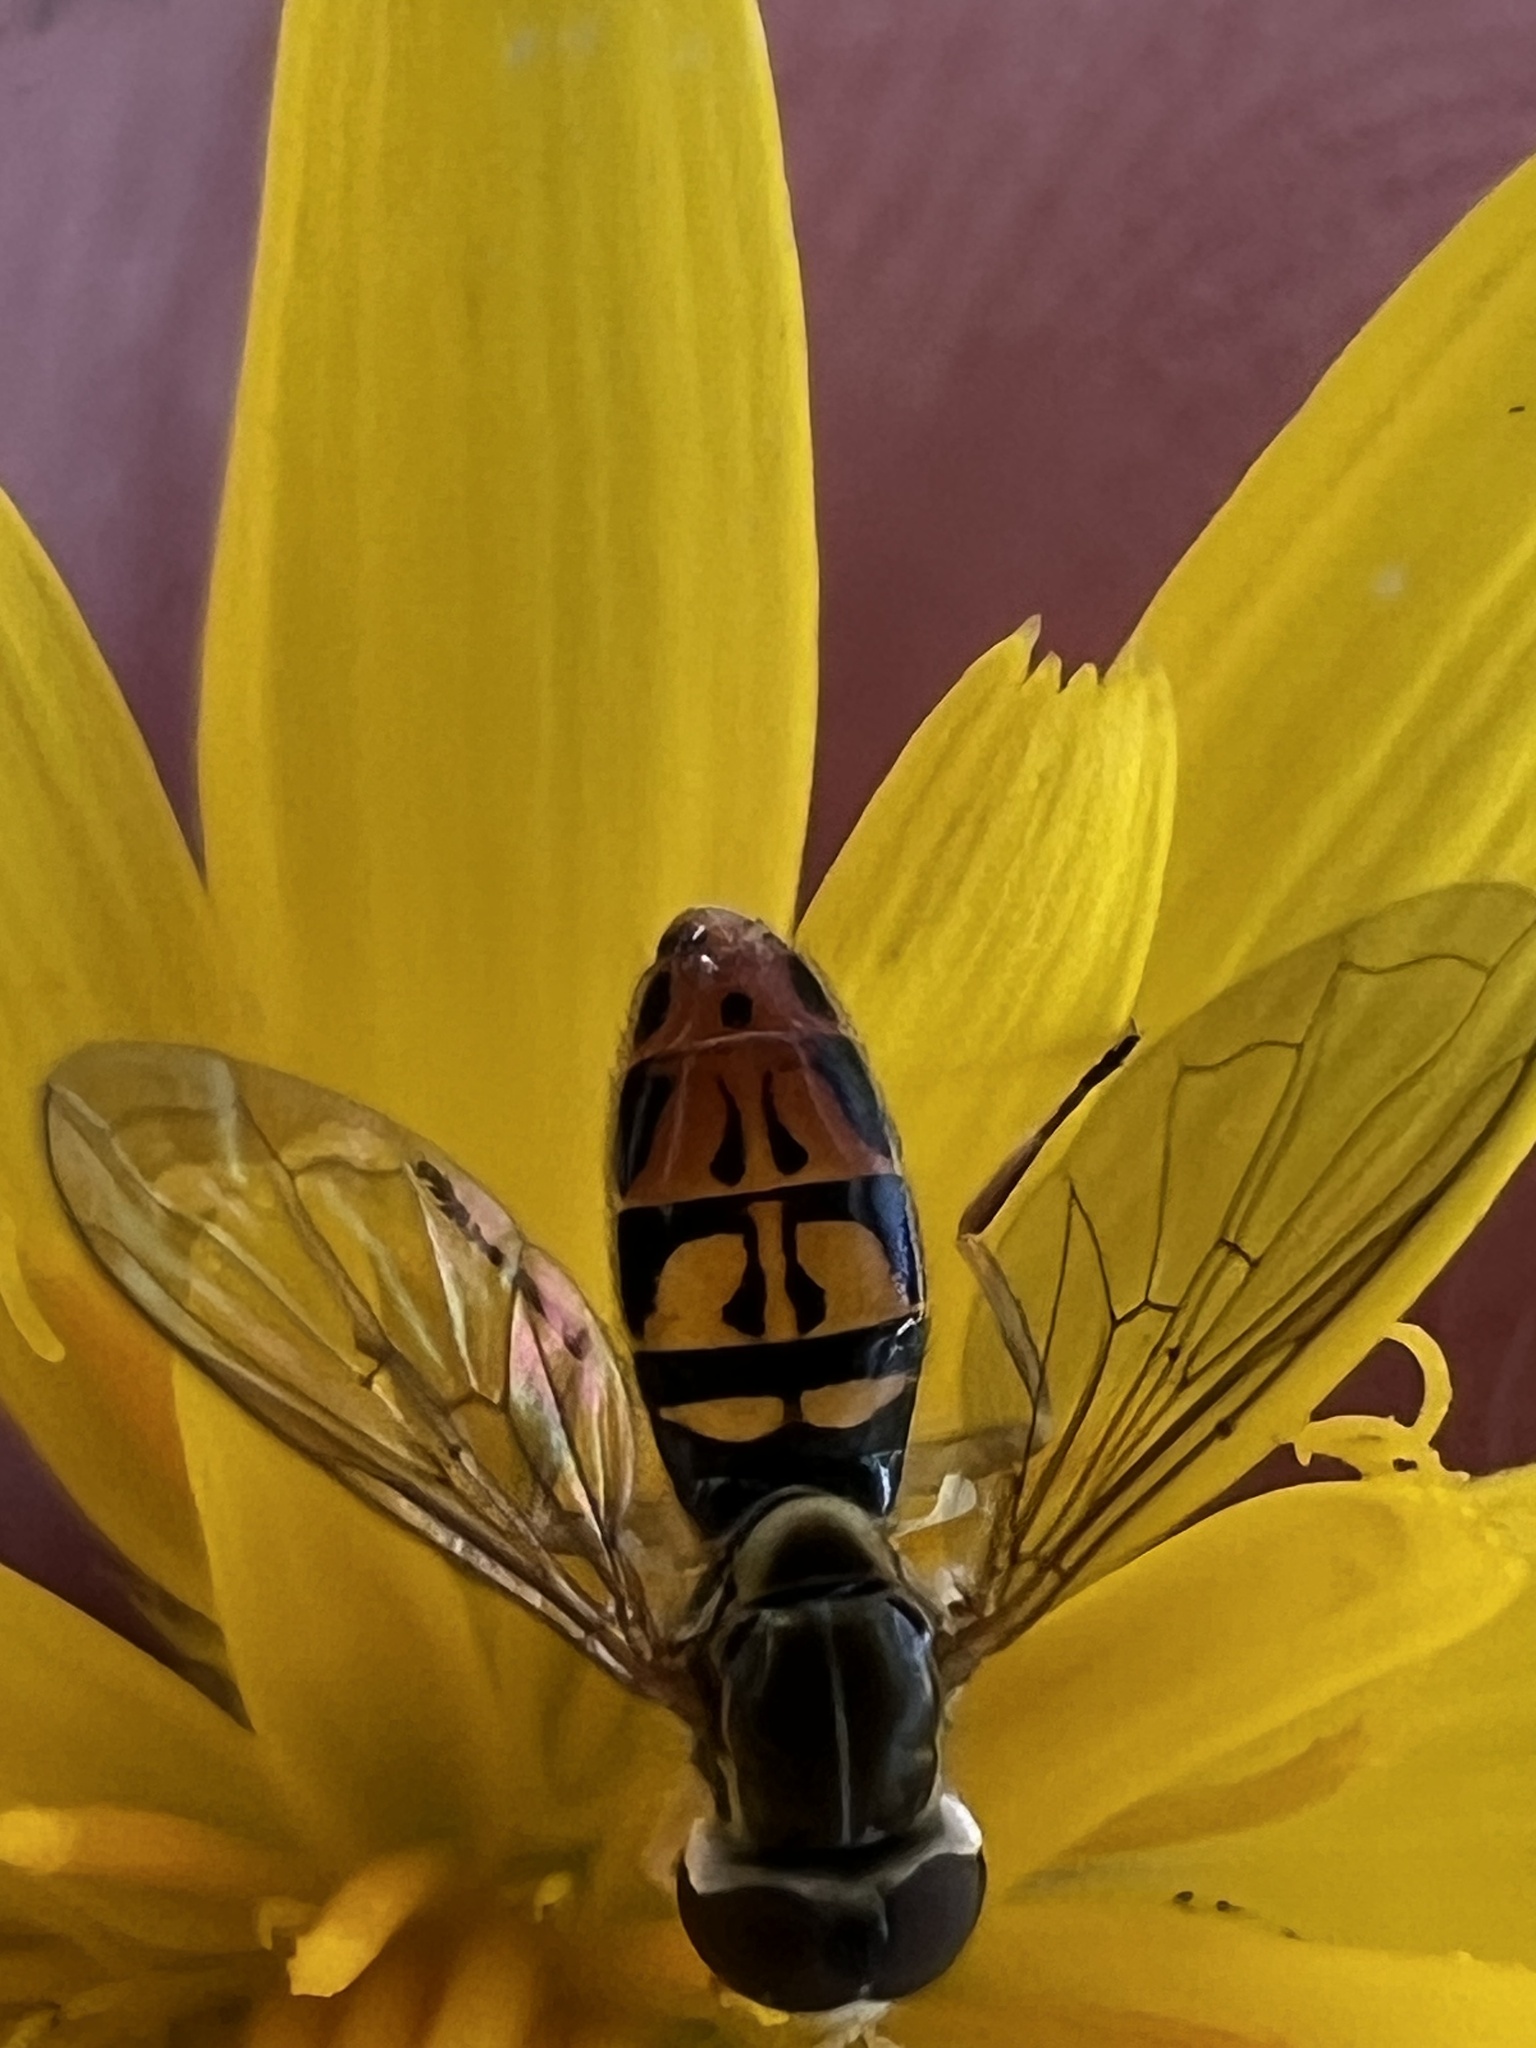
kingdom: Animalia
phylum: Arthropoda
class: Insecta
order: Diptera
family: Syrphidae
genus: Toxomerus
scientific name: Toxomerus marginatus
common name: Syrphid fly
